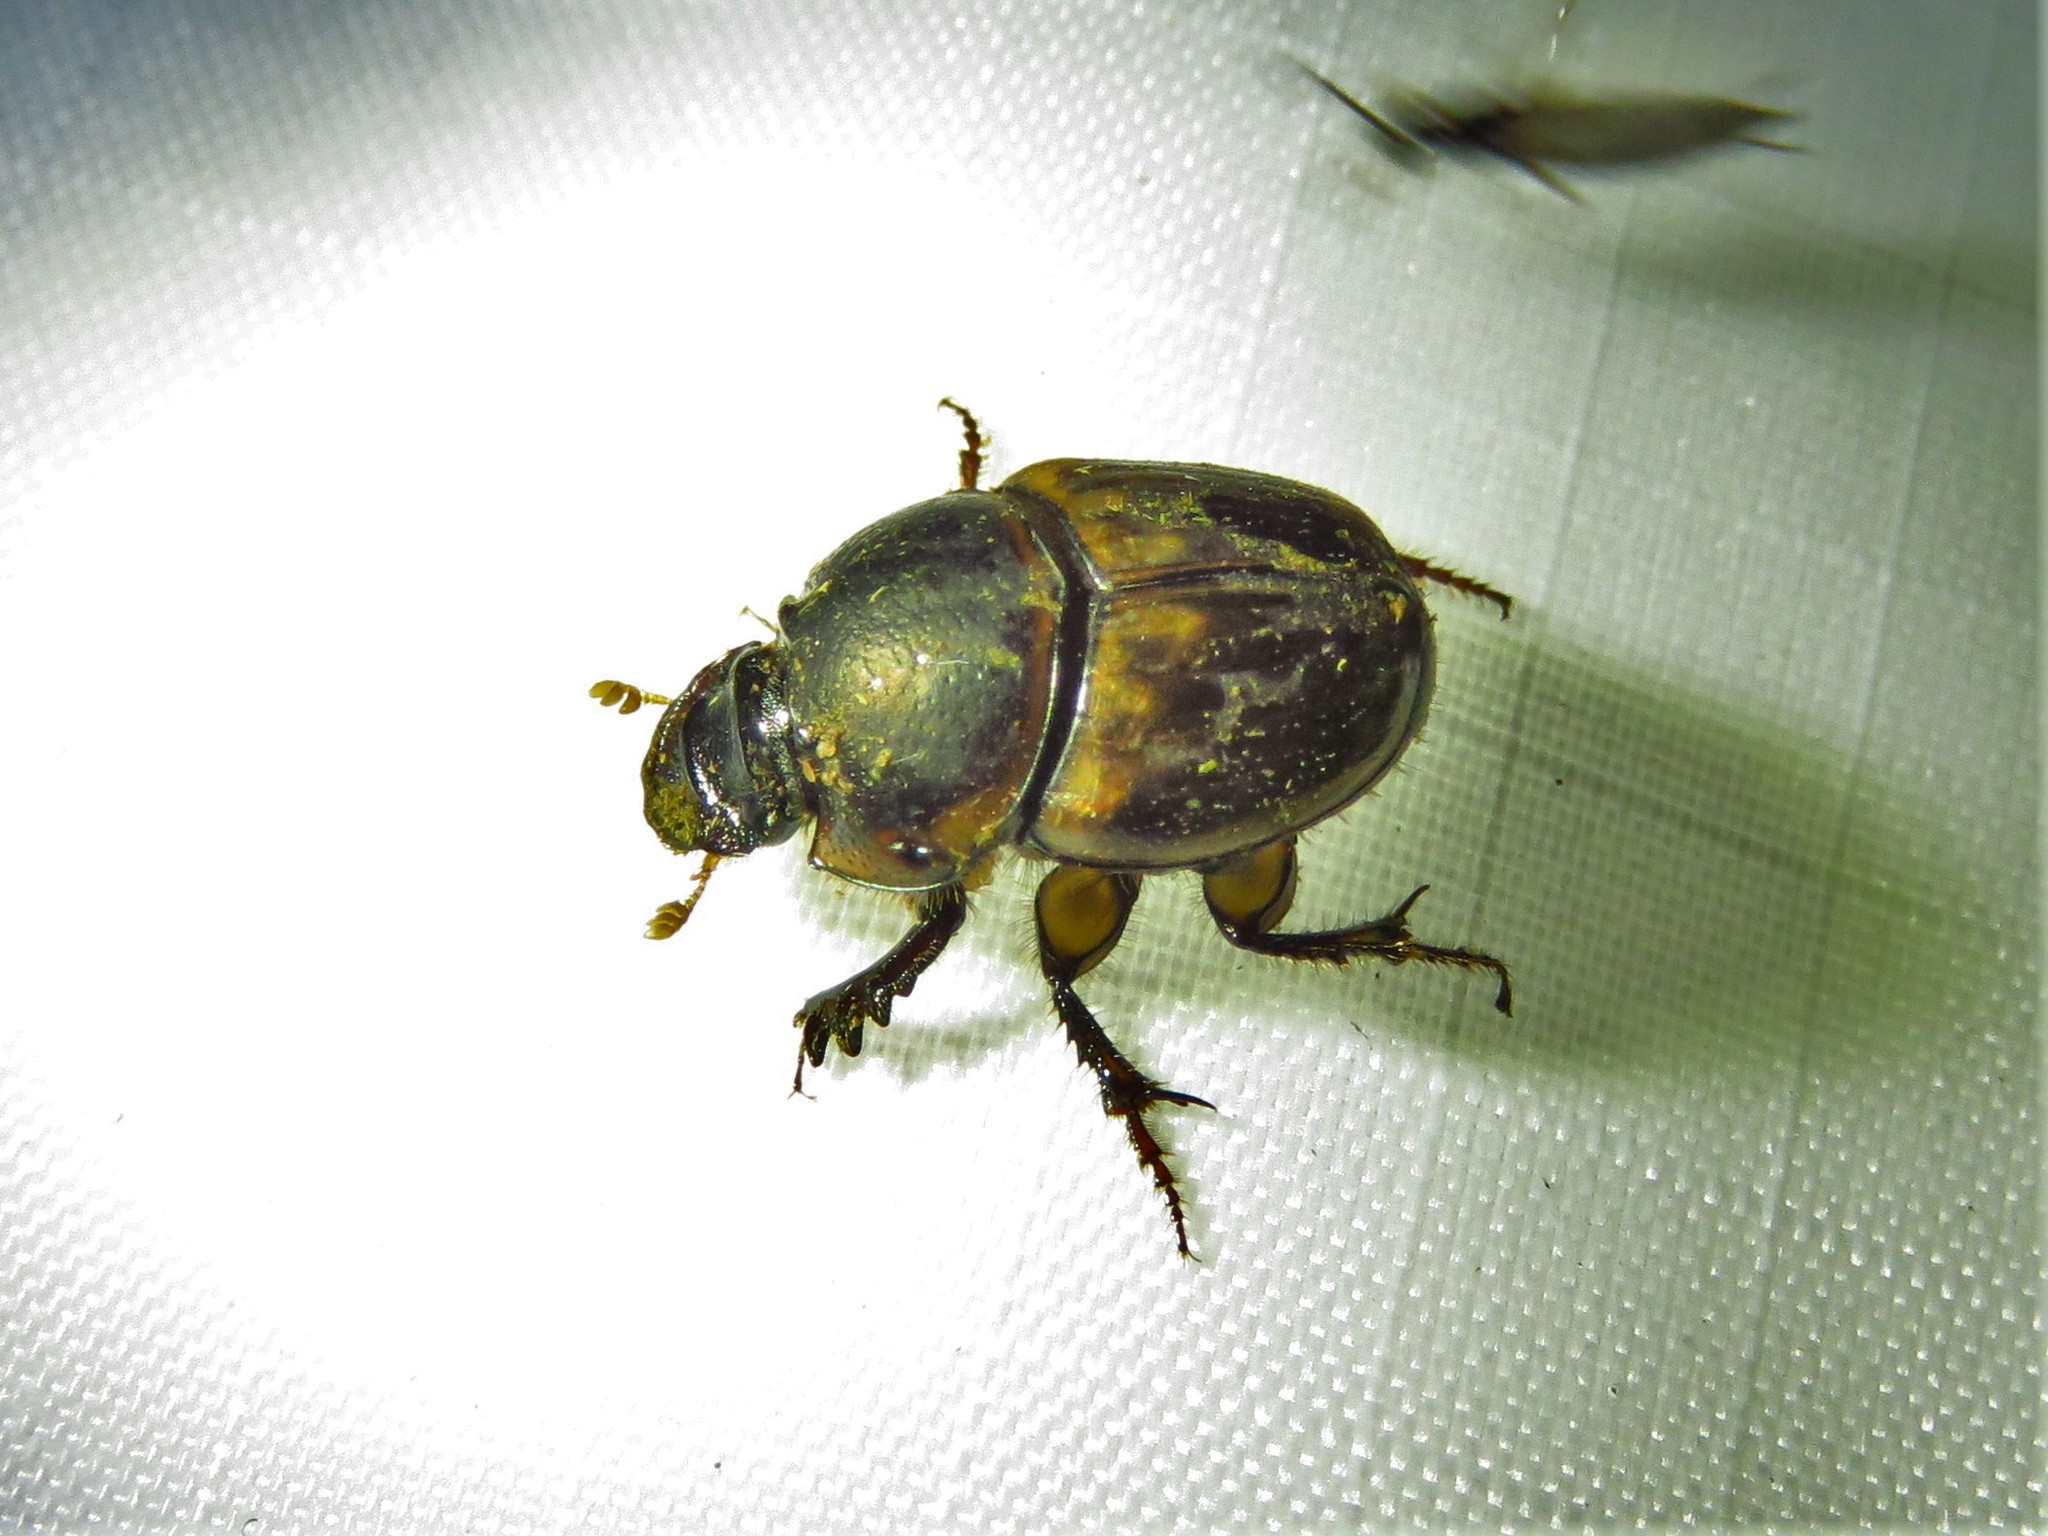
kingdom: Animalia
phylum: Arthropoda
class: Insecta
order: Coleoptera
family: Scarabaeidae
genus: Digitonthophagus
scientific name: Digitonthophagus gazella
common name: Brown dung beetle
